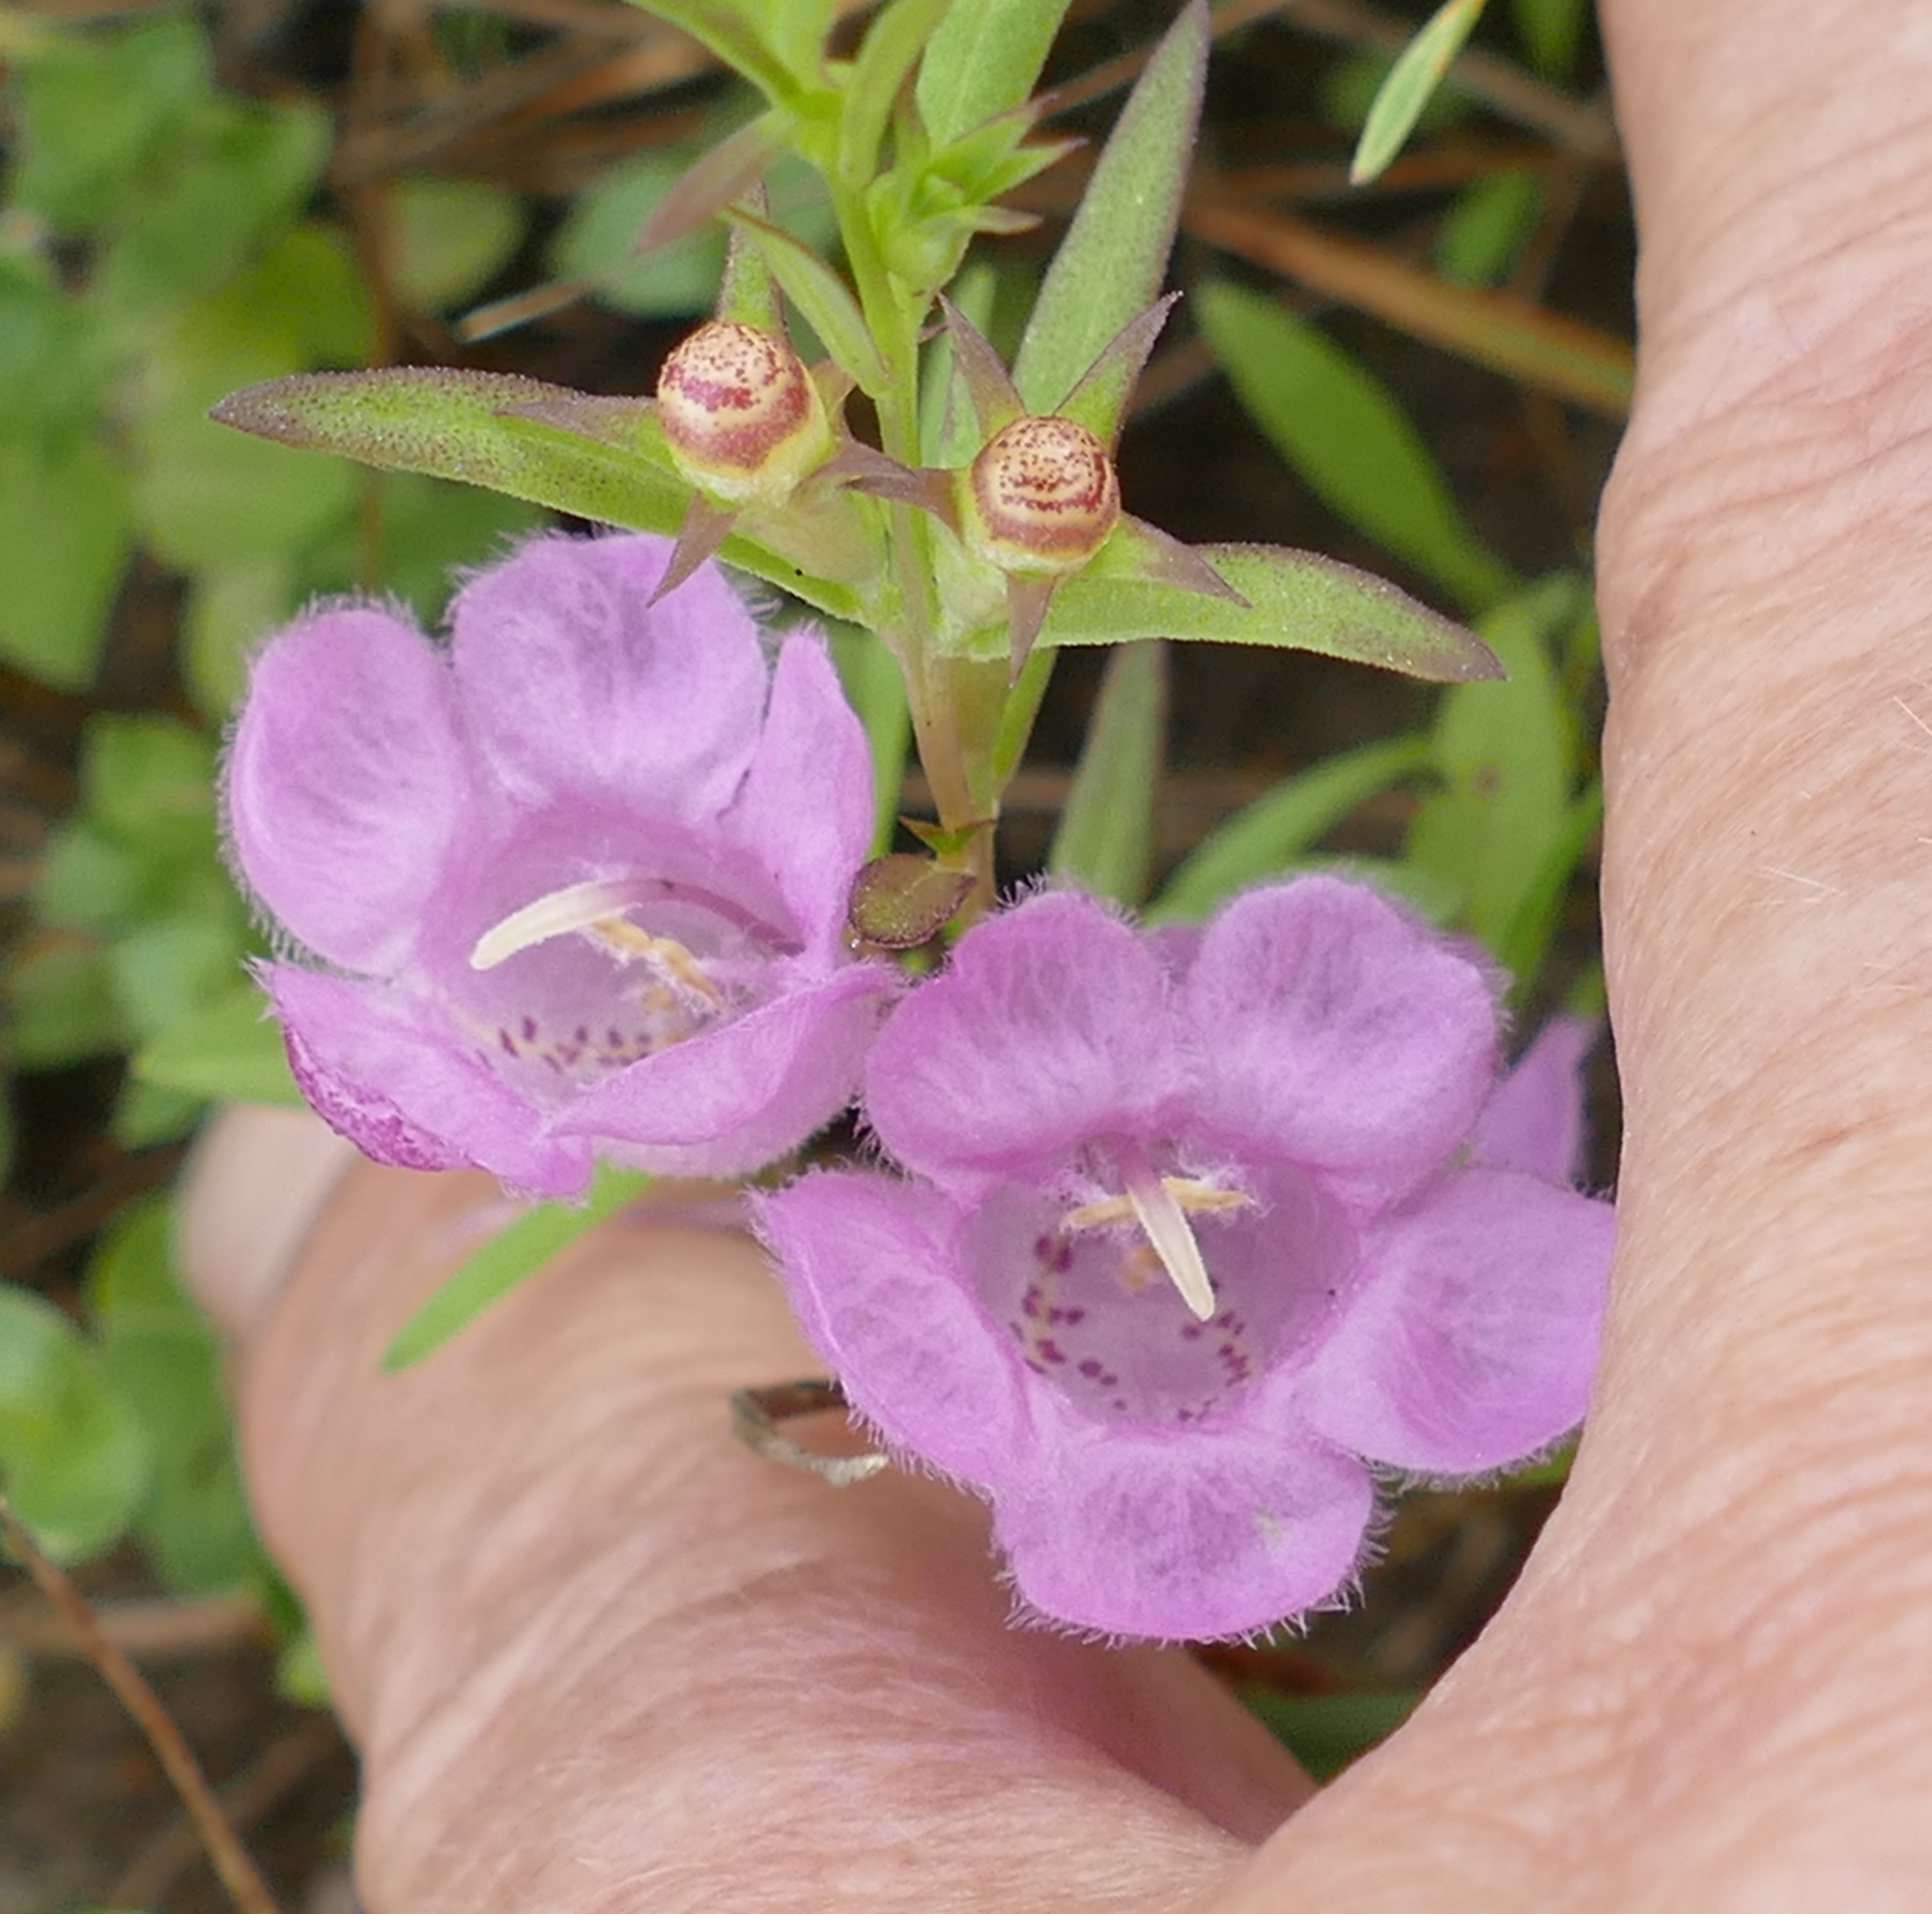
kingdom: Plantae
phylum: Tracheophyta
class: Magnoliopsida
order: Lamiales
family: Orobanchaceae
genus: Agalinis
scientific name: Agalinis heterophylla
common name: Prairie agalinis
